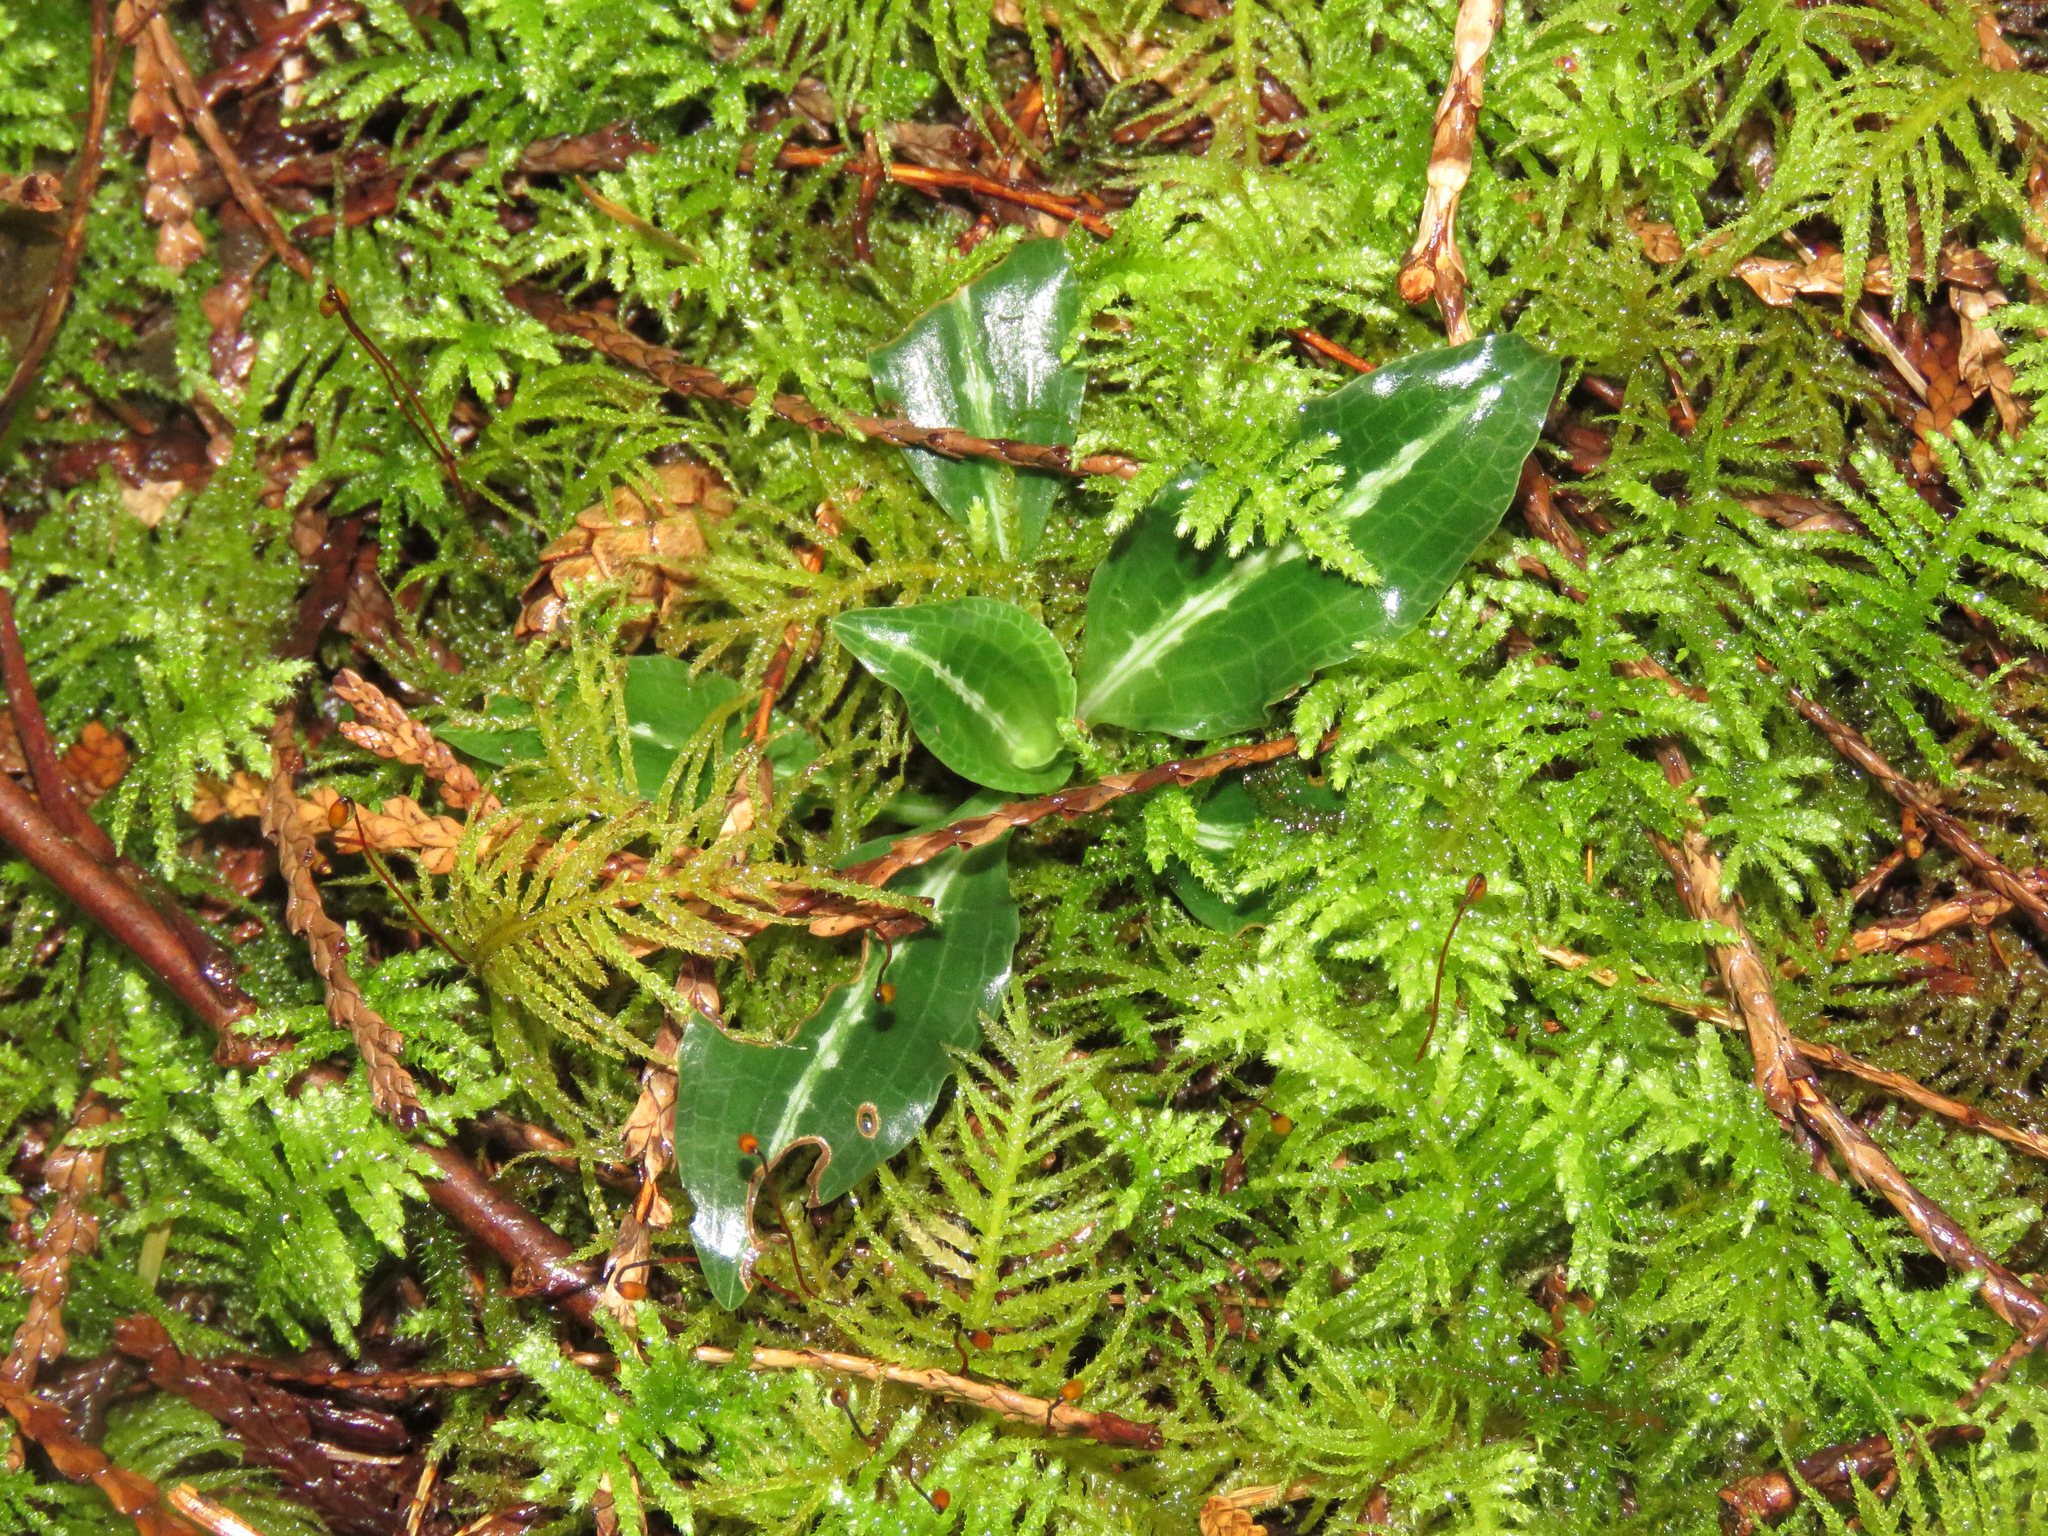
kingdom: Plantae
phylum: Tracheophyta
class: Liliopsida
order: Asparagales
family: Orchidaceae
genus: Goodyera
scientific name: Goodyera oblongifolia
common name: Giant rattlesnake-plantain
